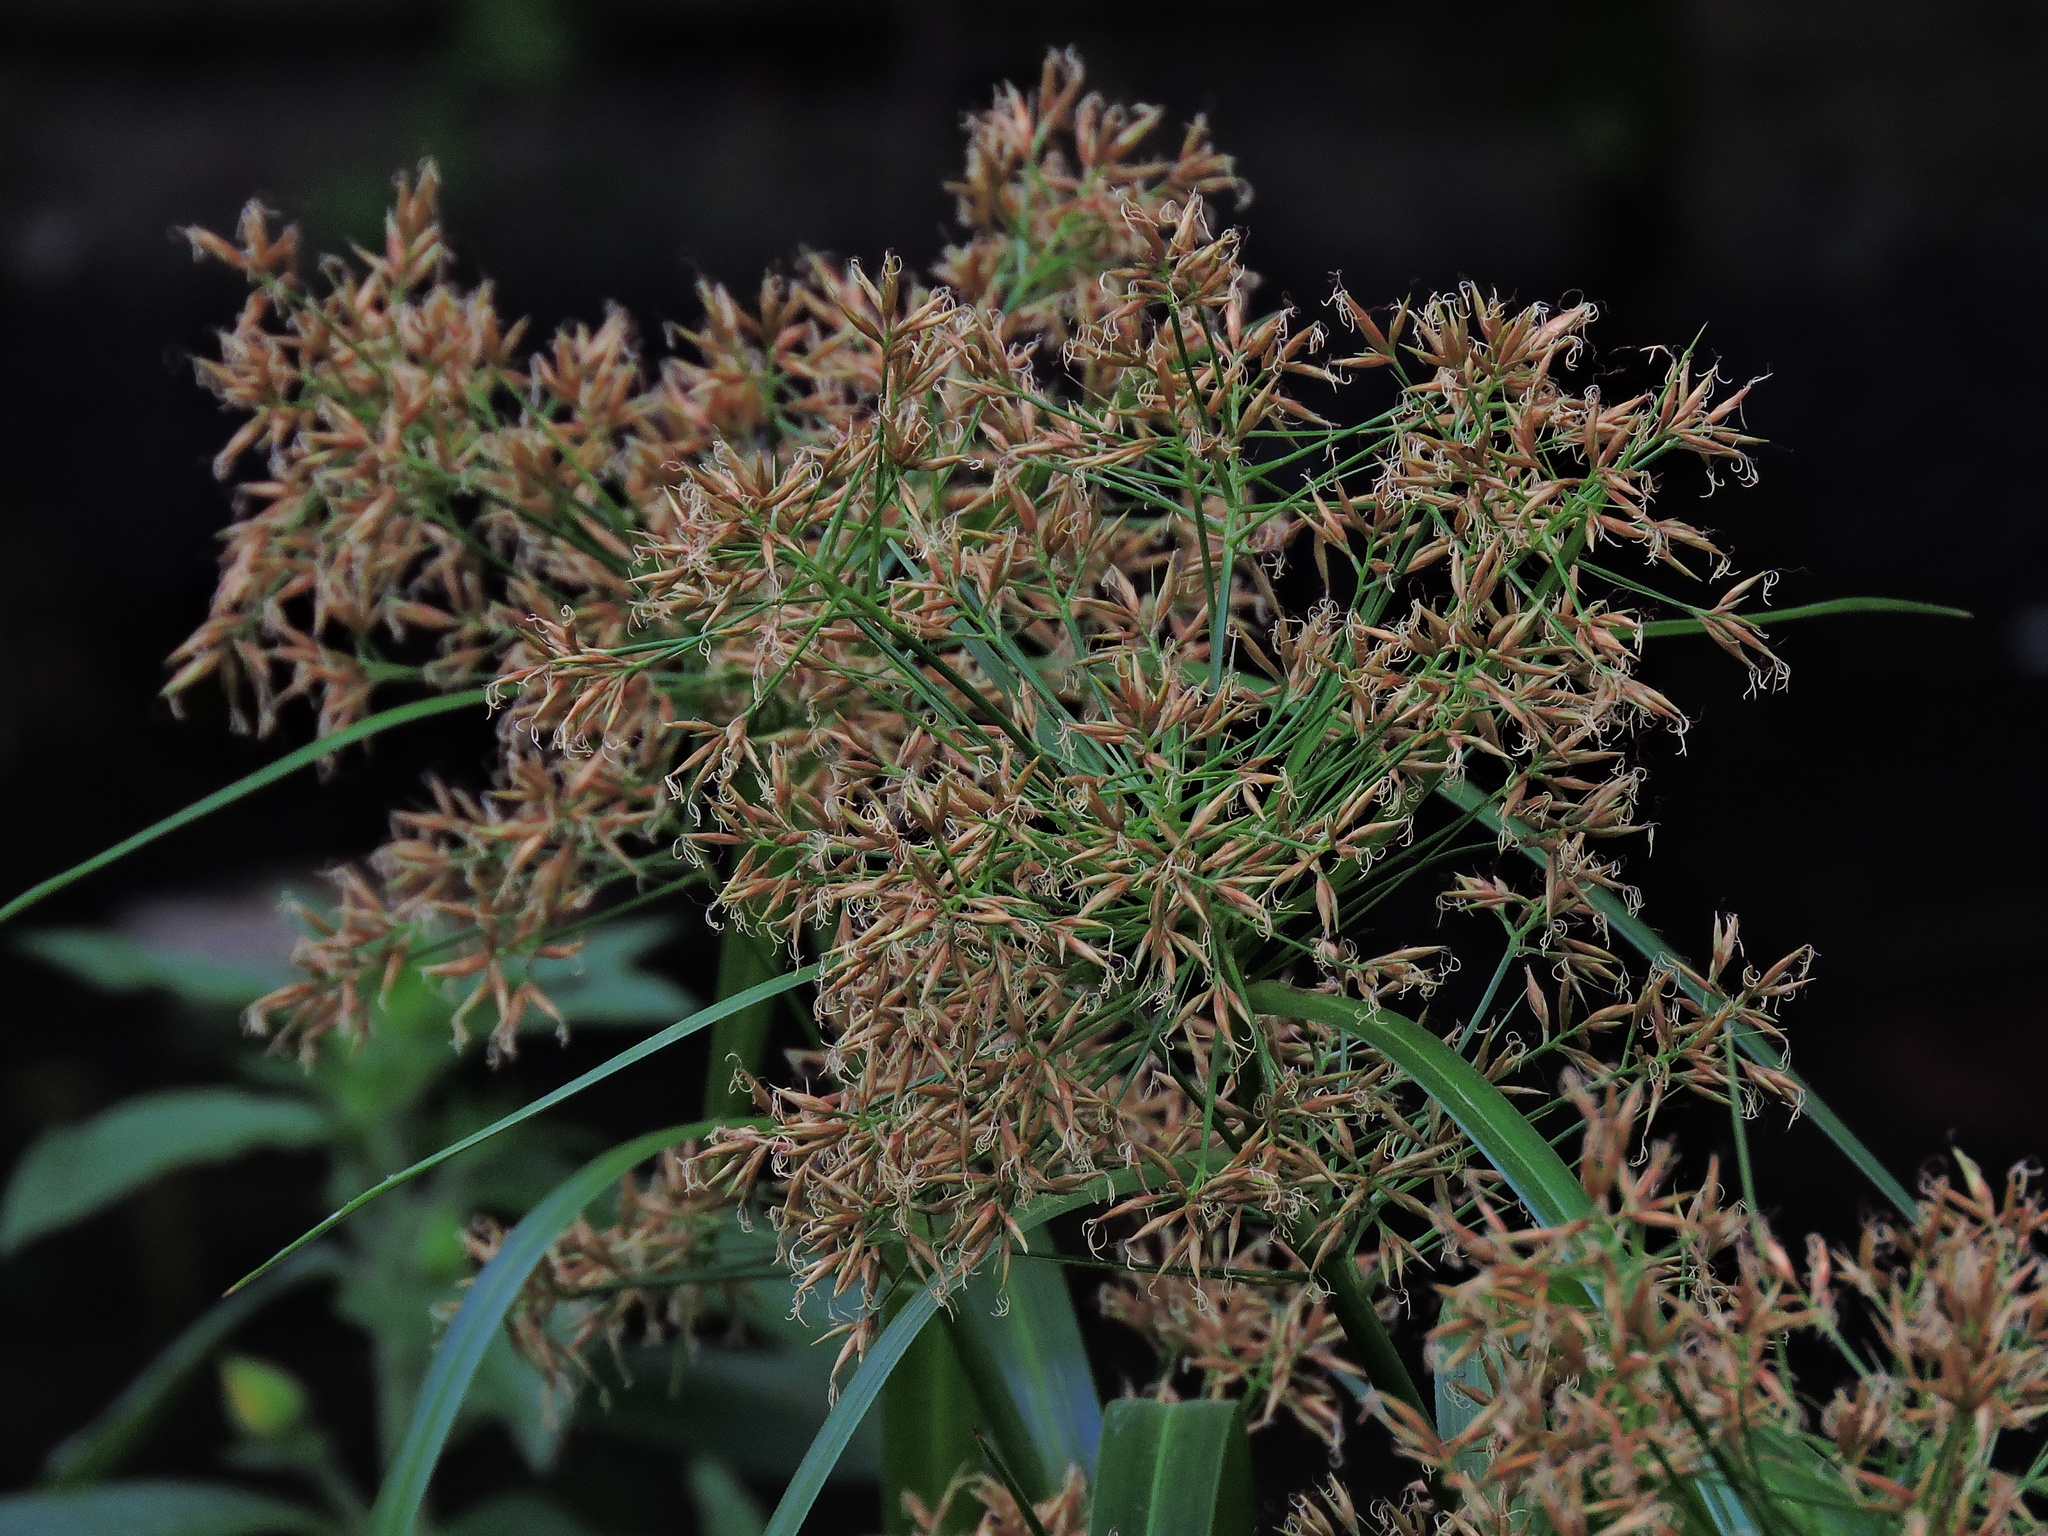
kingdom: Plantae
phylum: Tracheophyta
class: Liliopsida
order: Poales
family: Cyperaceae
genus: Rhynchospora
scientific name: Rhynchospora corymbosa
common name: Golden beak sedge
